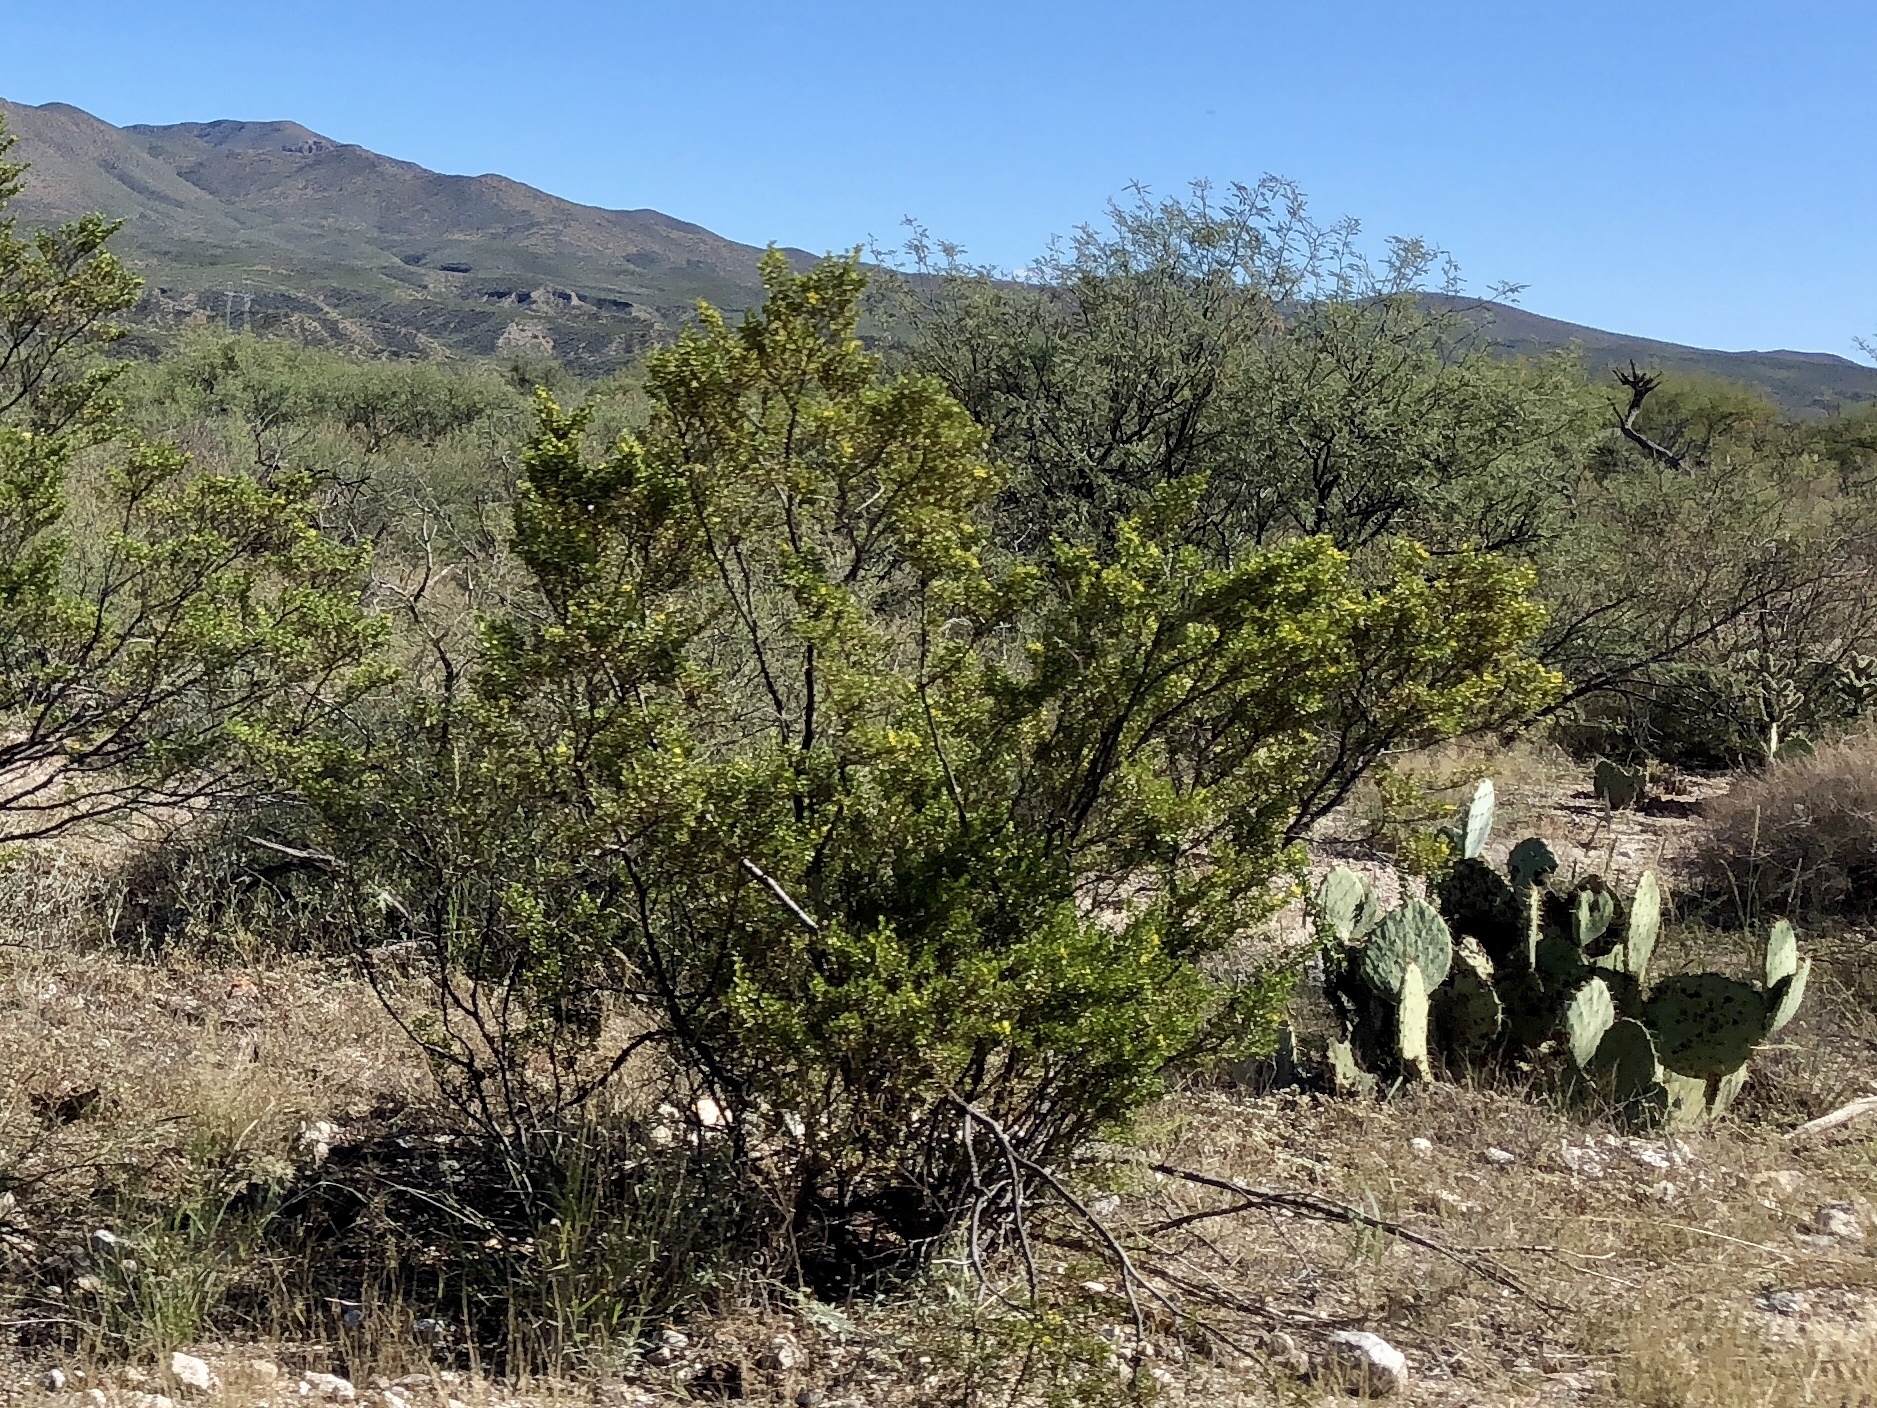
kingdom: Plantae
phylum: Tracheophyta
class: Magnoliopsida
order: Zygophyllales
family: Zygophyllaceae
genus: Larrea
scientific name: Larrea tridentata
